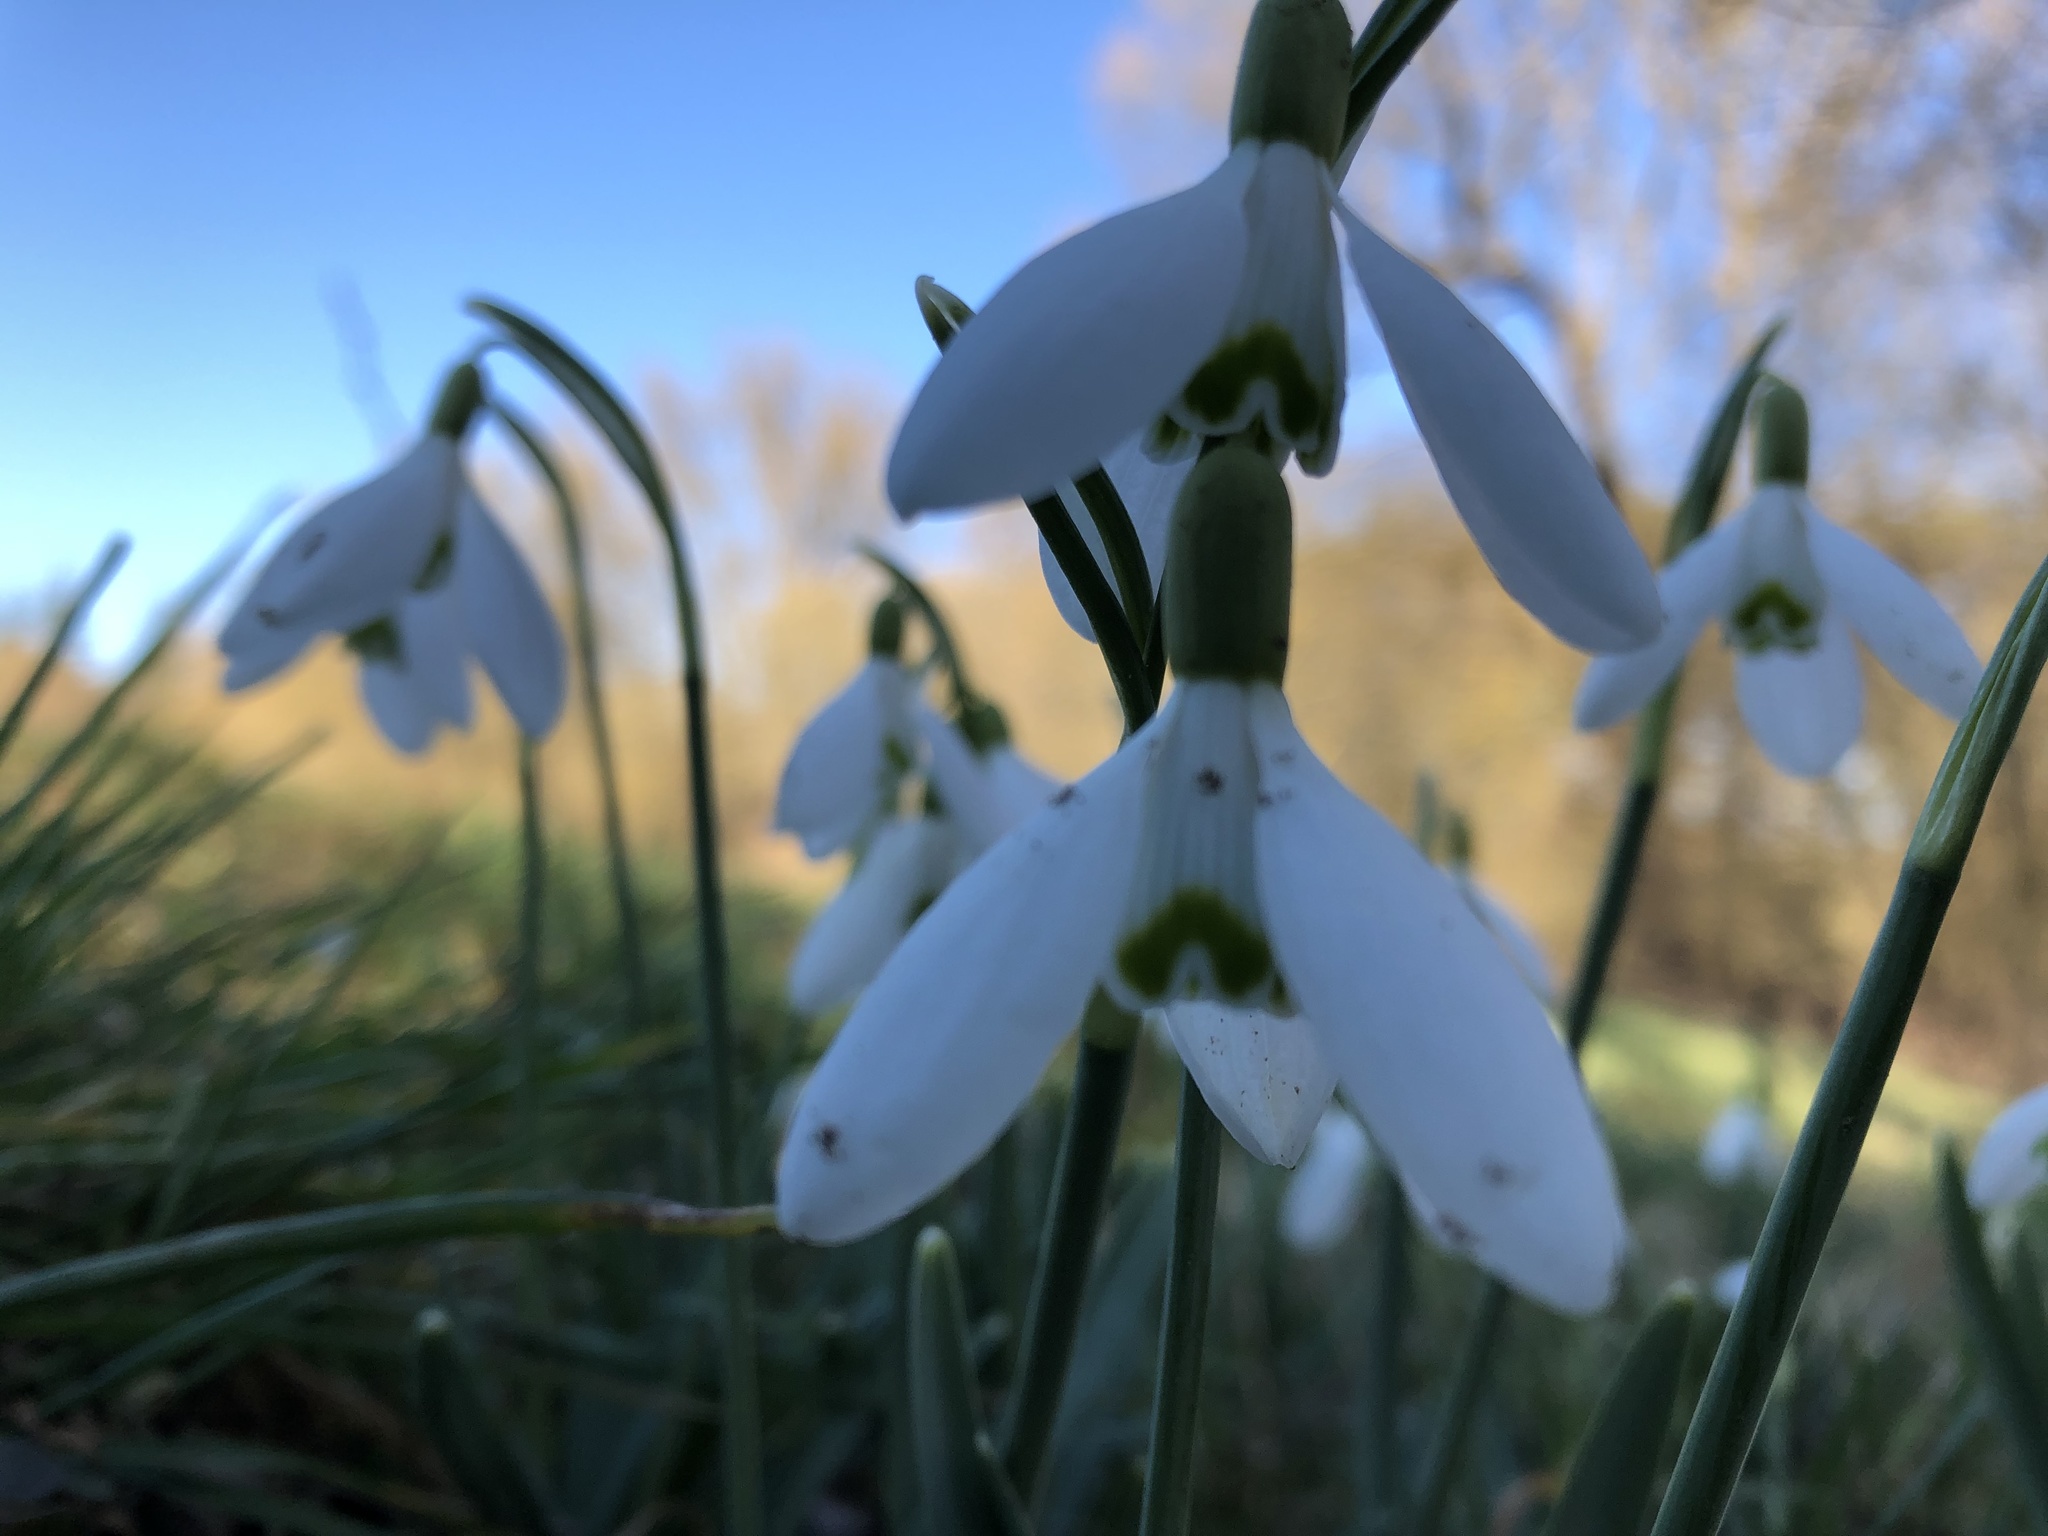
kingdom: Plantae
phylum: Tracheophyta
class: Liliopsida
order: Asparagales
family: Amaryllidaceae
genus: Galanthus
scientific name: Galanthus nivalis
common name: Snowdrop
